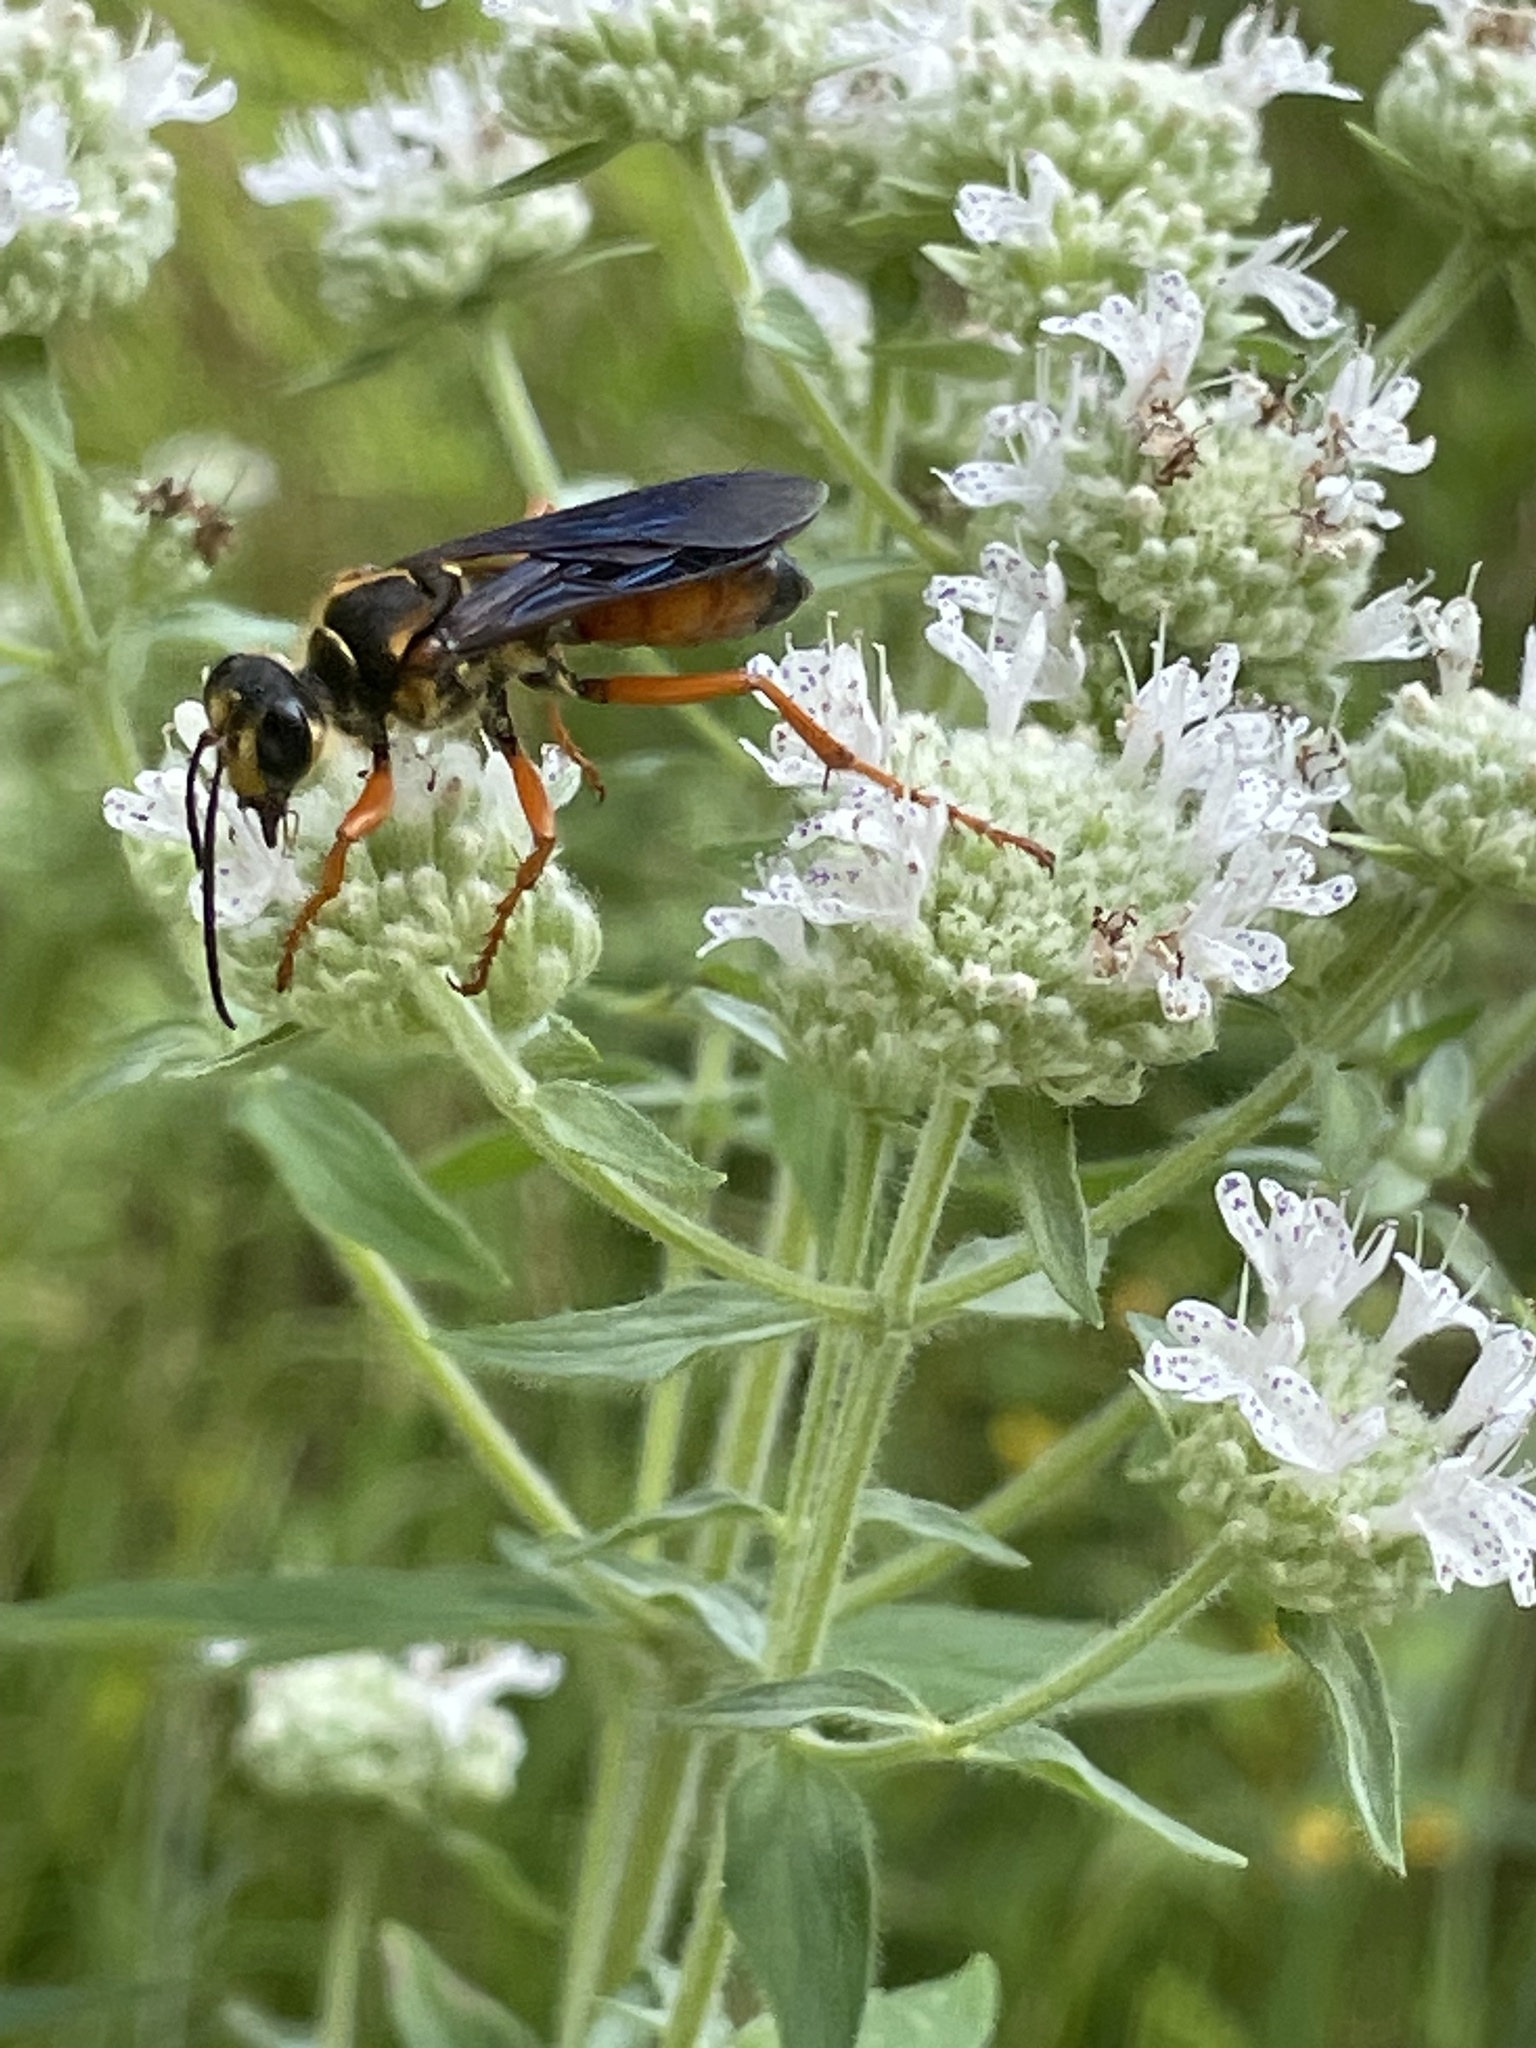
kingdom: Animalia
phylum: Arthropoda
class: Insecta
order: Hymenoptera
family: Sphecidae
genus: Sphex
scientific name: Sphex ichneumoneus
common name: Great golden digger wasp
